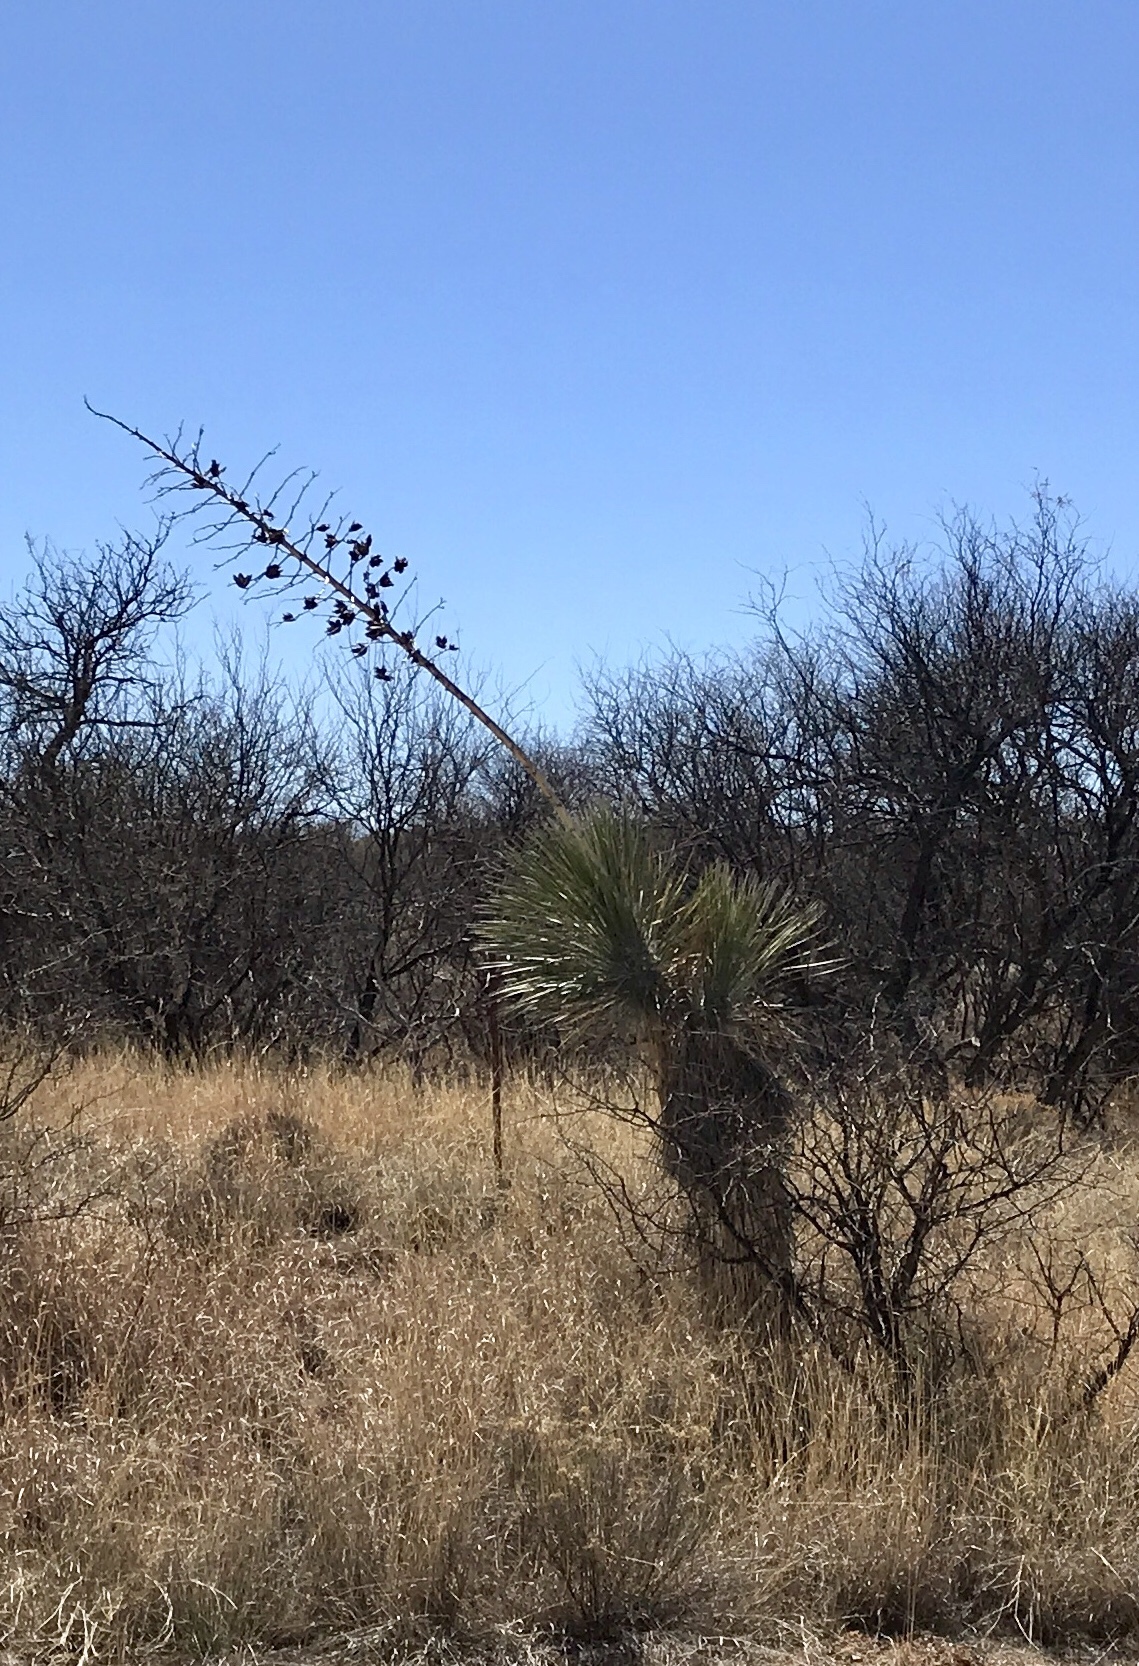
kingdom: Plantae
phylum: Tracheophyta
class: Liliopsida
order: Asparagales
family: Asparagaceae
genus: Yucca
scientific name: Yucca elata
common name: Palmella
